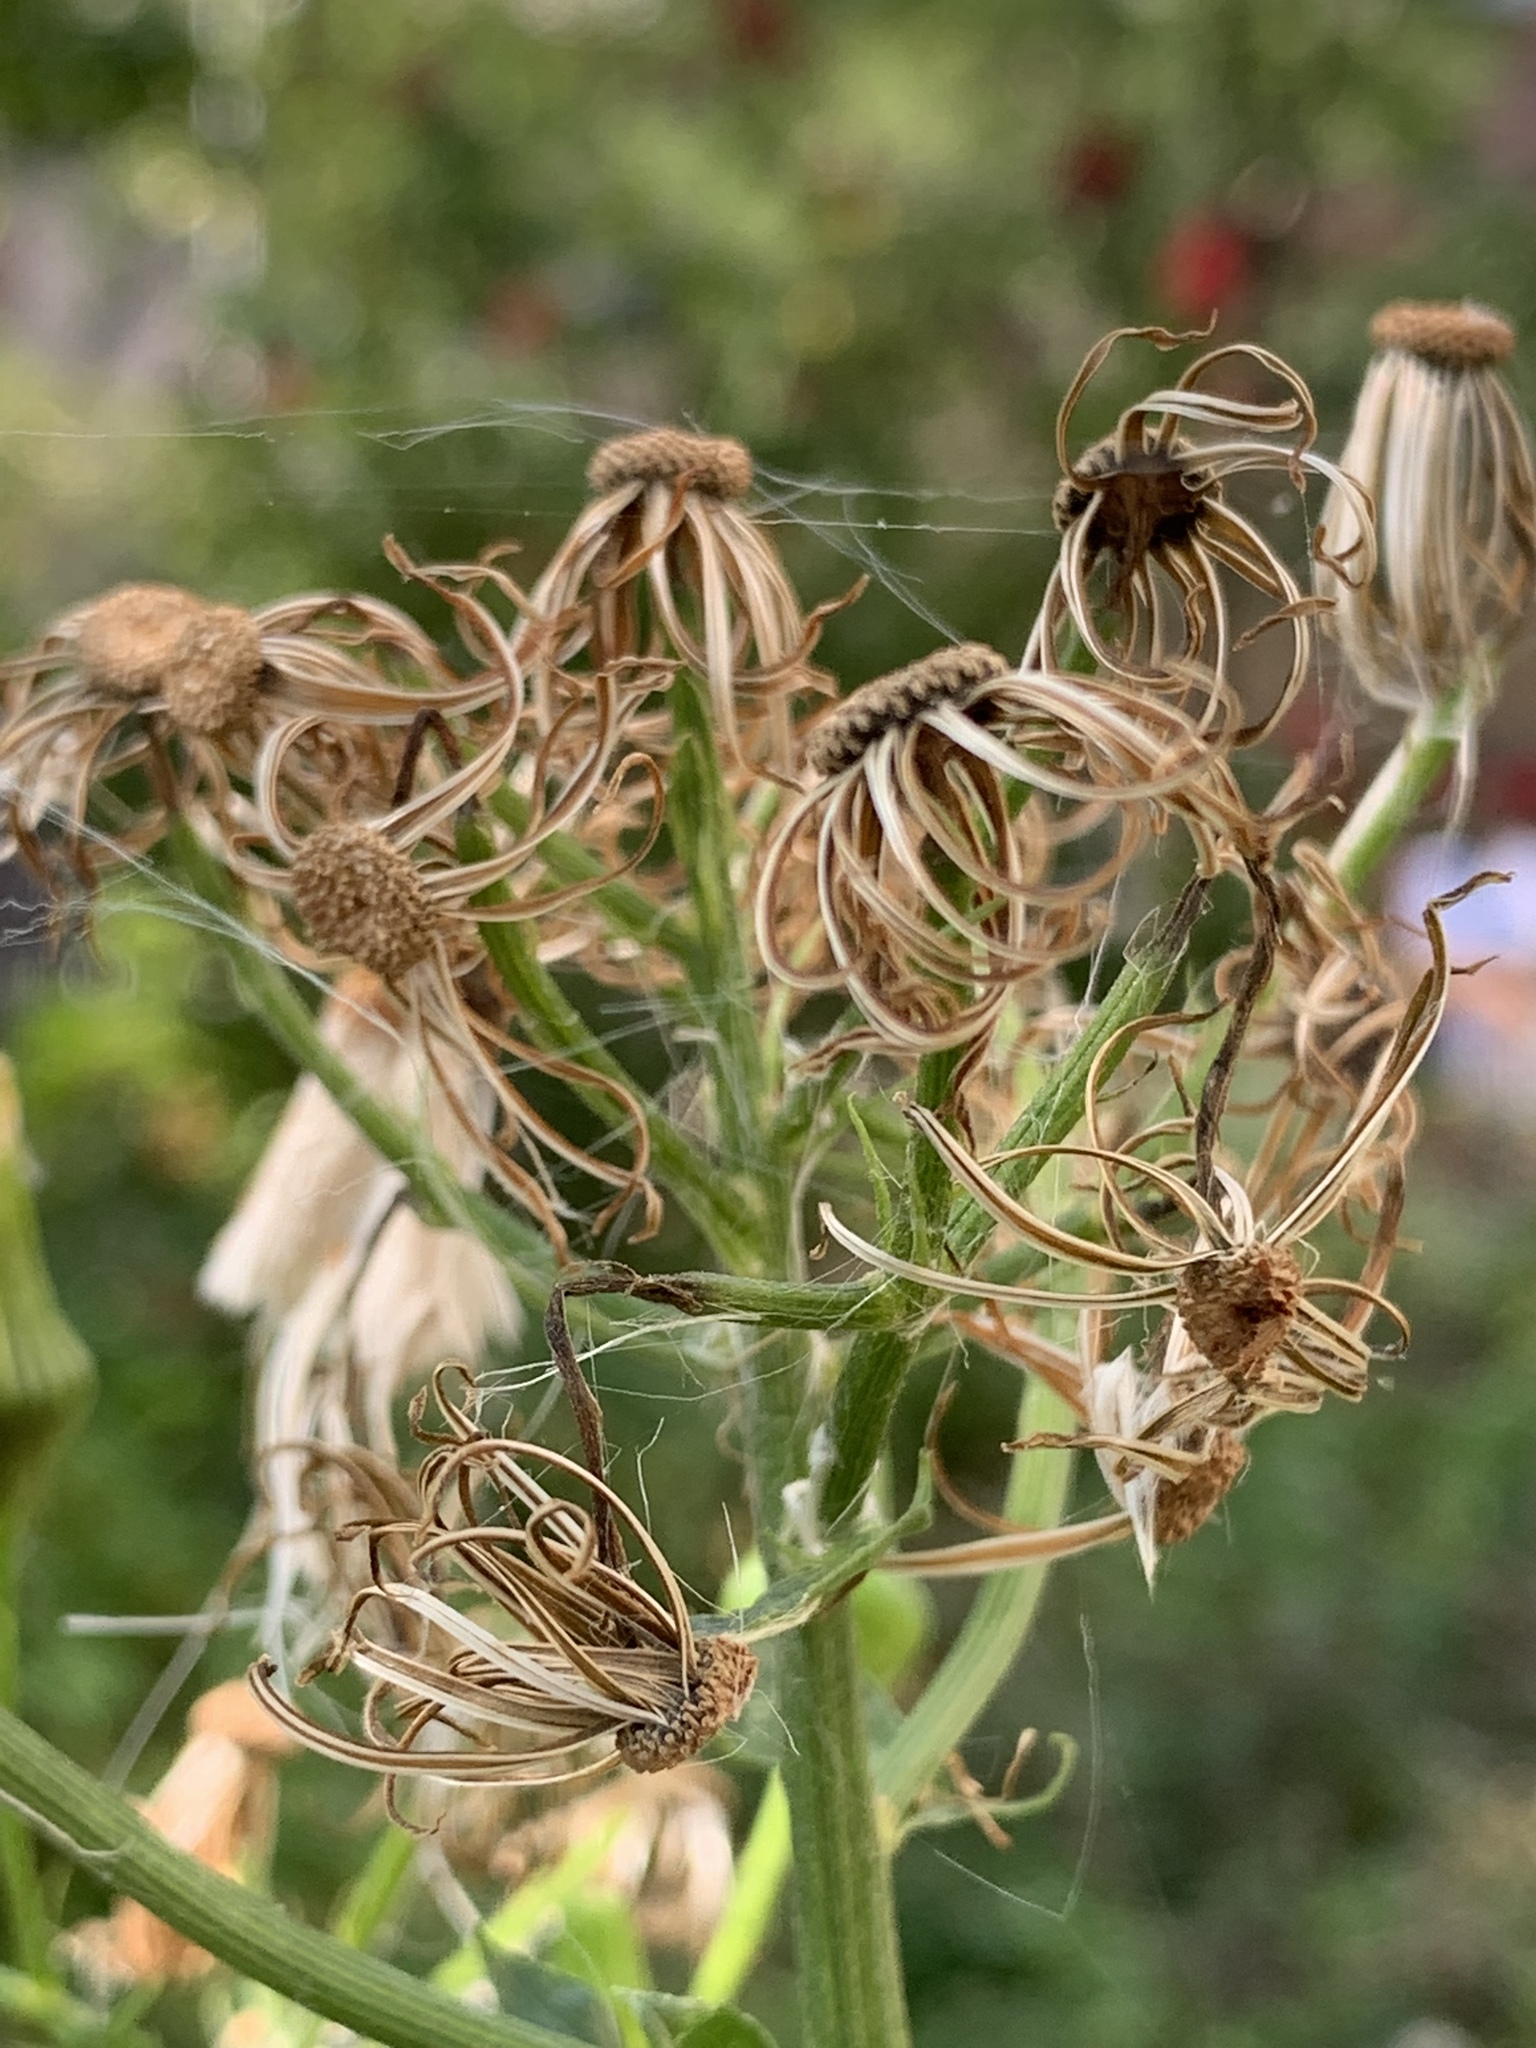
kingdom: Plantae
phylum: Tracheophyta
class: Magnoliopsida
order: Asterales
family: Asteraceae
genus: Erechtites
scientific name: Erechtites hieraciifolius
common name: American burnweed
